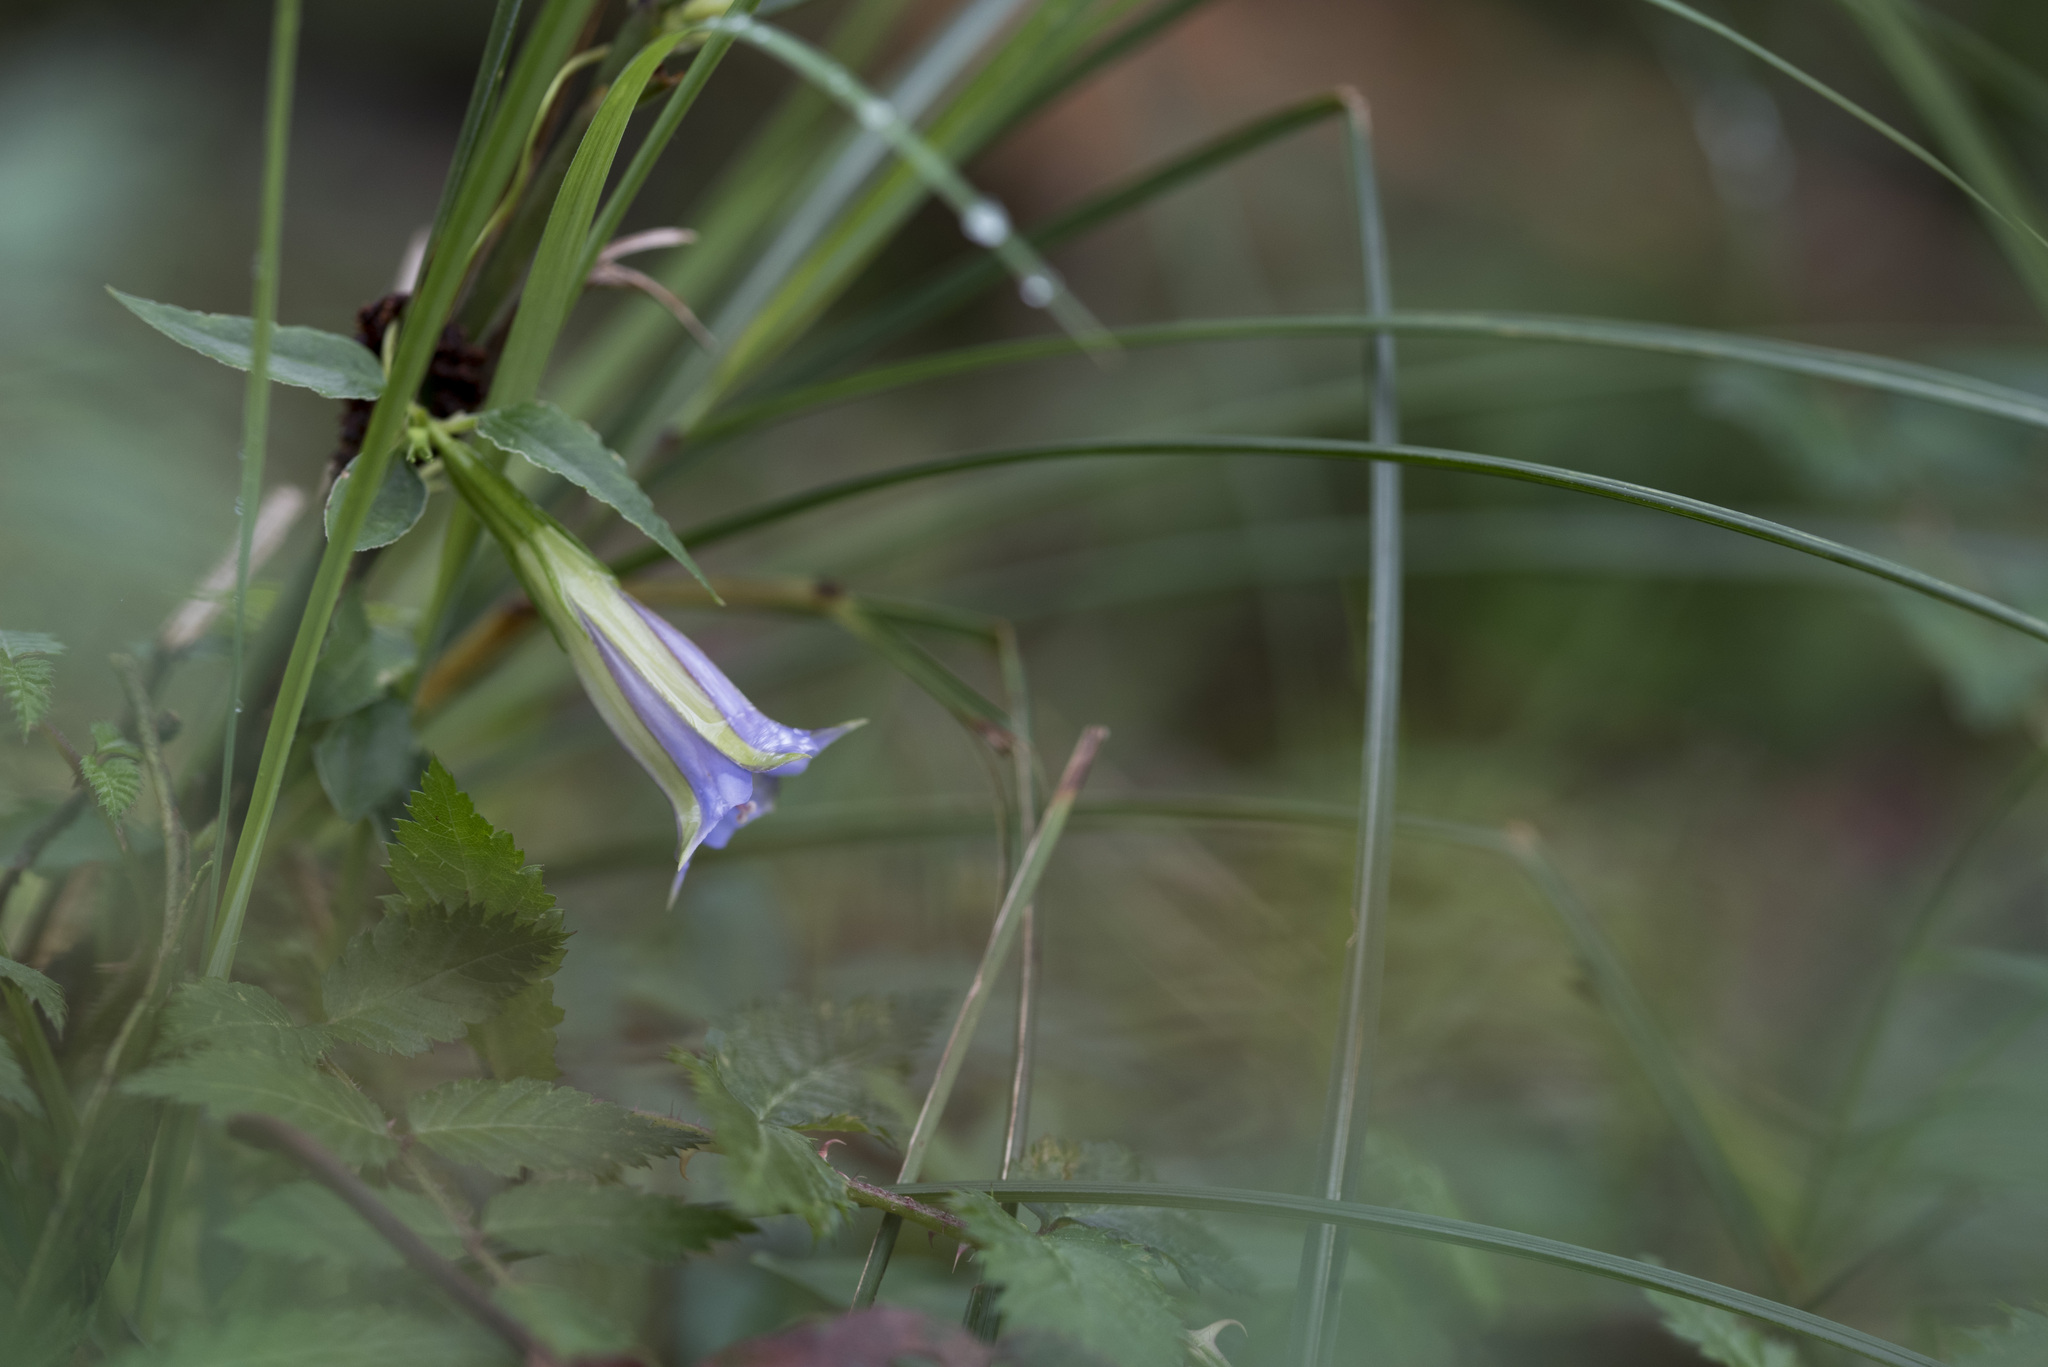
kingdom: Plantae
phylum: Tracheophyta
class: Magnoliopsida
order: Gentianales
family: Gentianaceae
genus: Tripterospermum
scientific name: Tripterospermum lanceolatum
